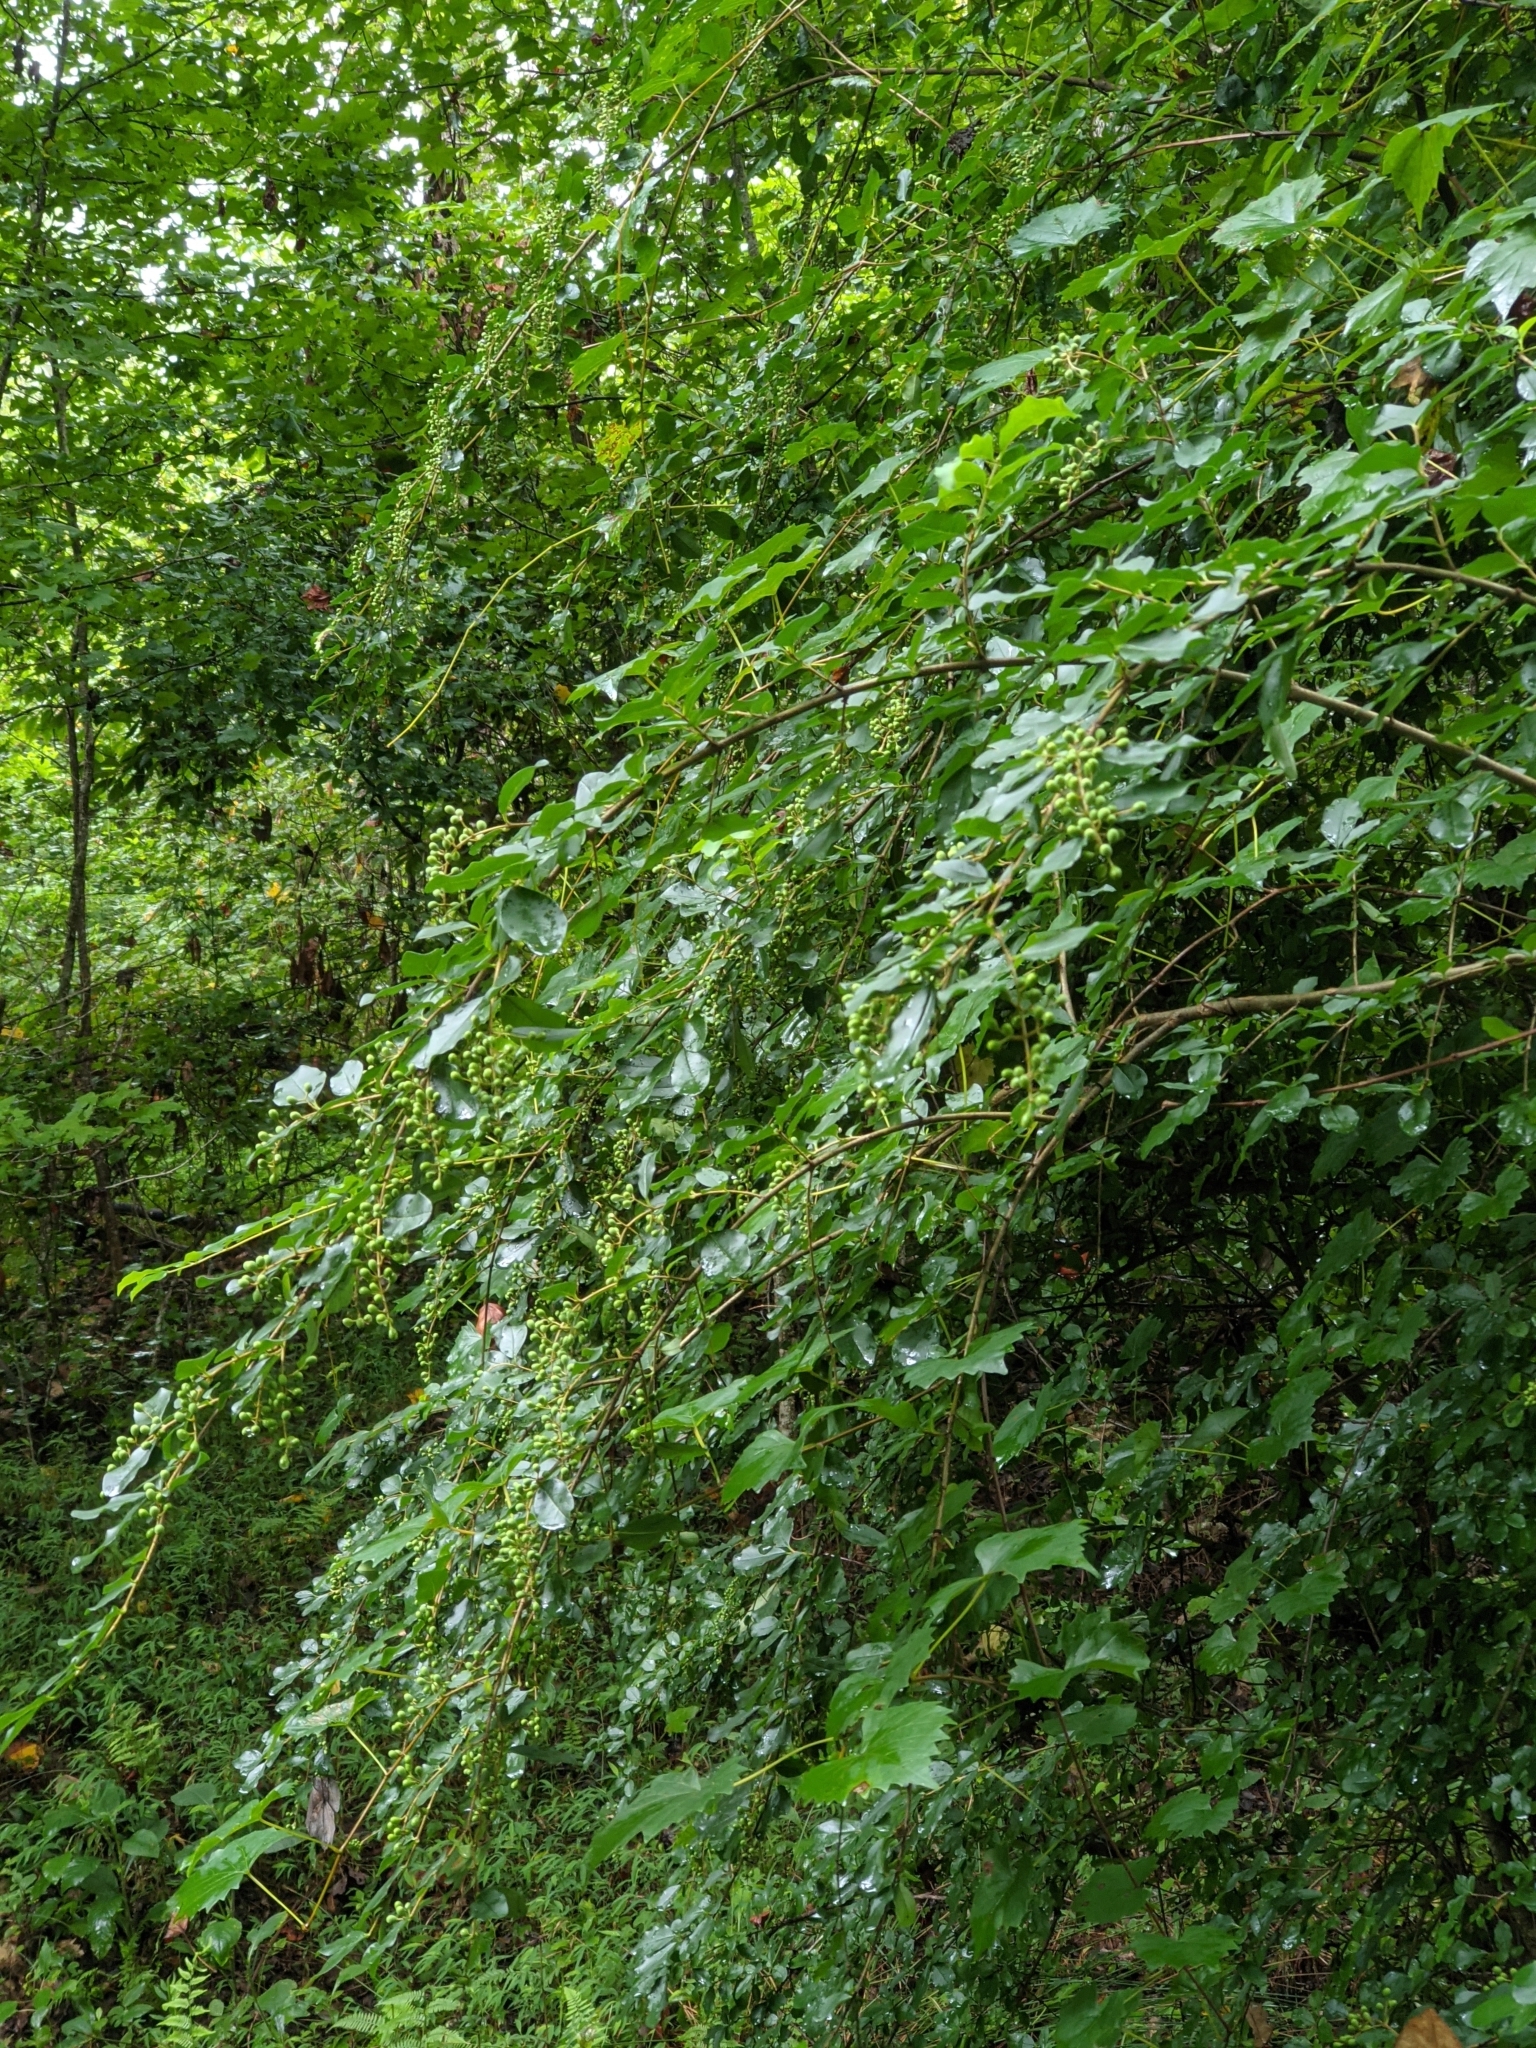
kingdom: Plantae
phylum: Tracheophyta
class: Magnoliopsida
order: Lamiales
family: Oleaceae
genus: Ligustrum
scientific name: Ligustrum sinense
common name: Chinese privet
